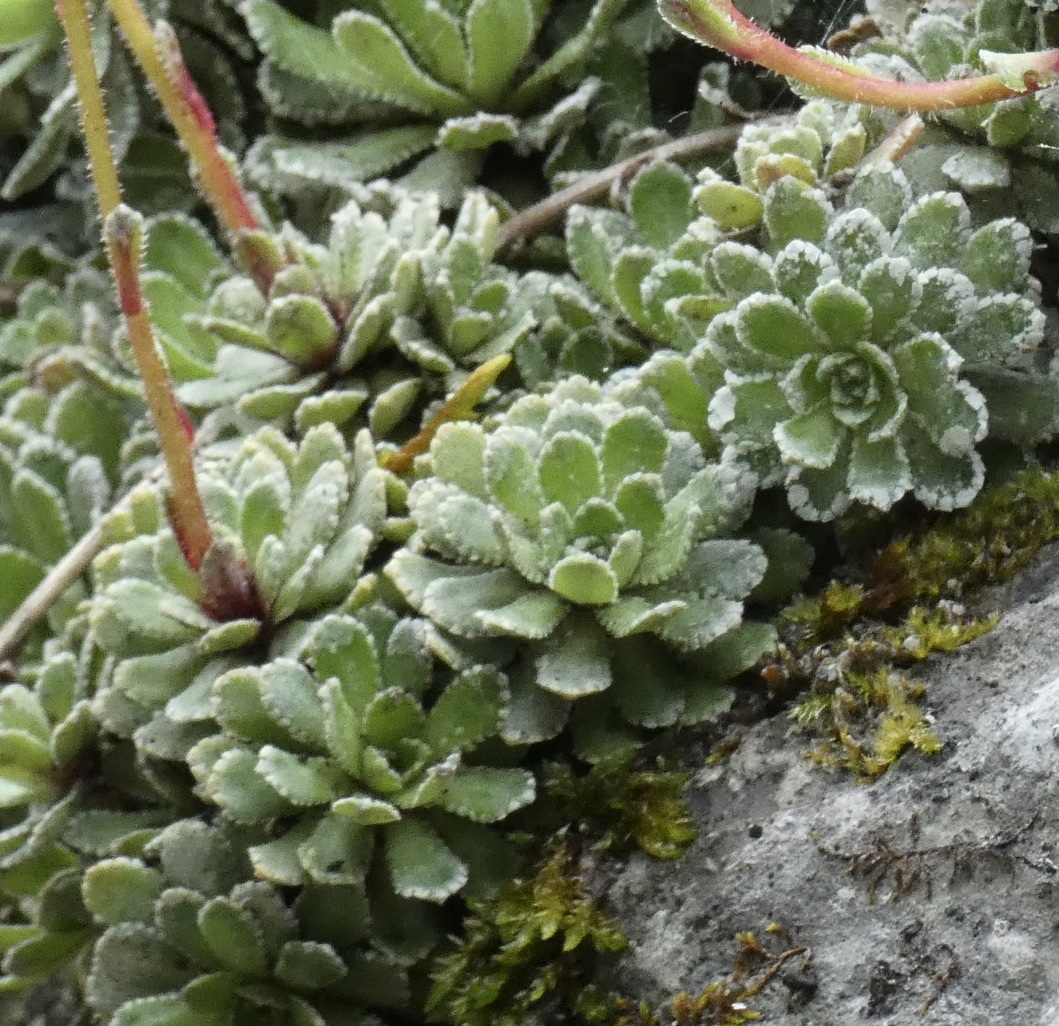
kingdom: Plantae
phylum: Tracheophyta
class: Magnoliopsida
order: Saxifragales
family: Saxifragaceae
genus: Saxifraga
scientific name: Saxifraga paniculata
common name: Livelong saxifrage
